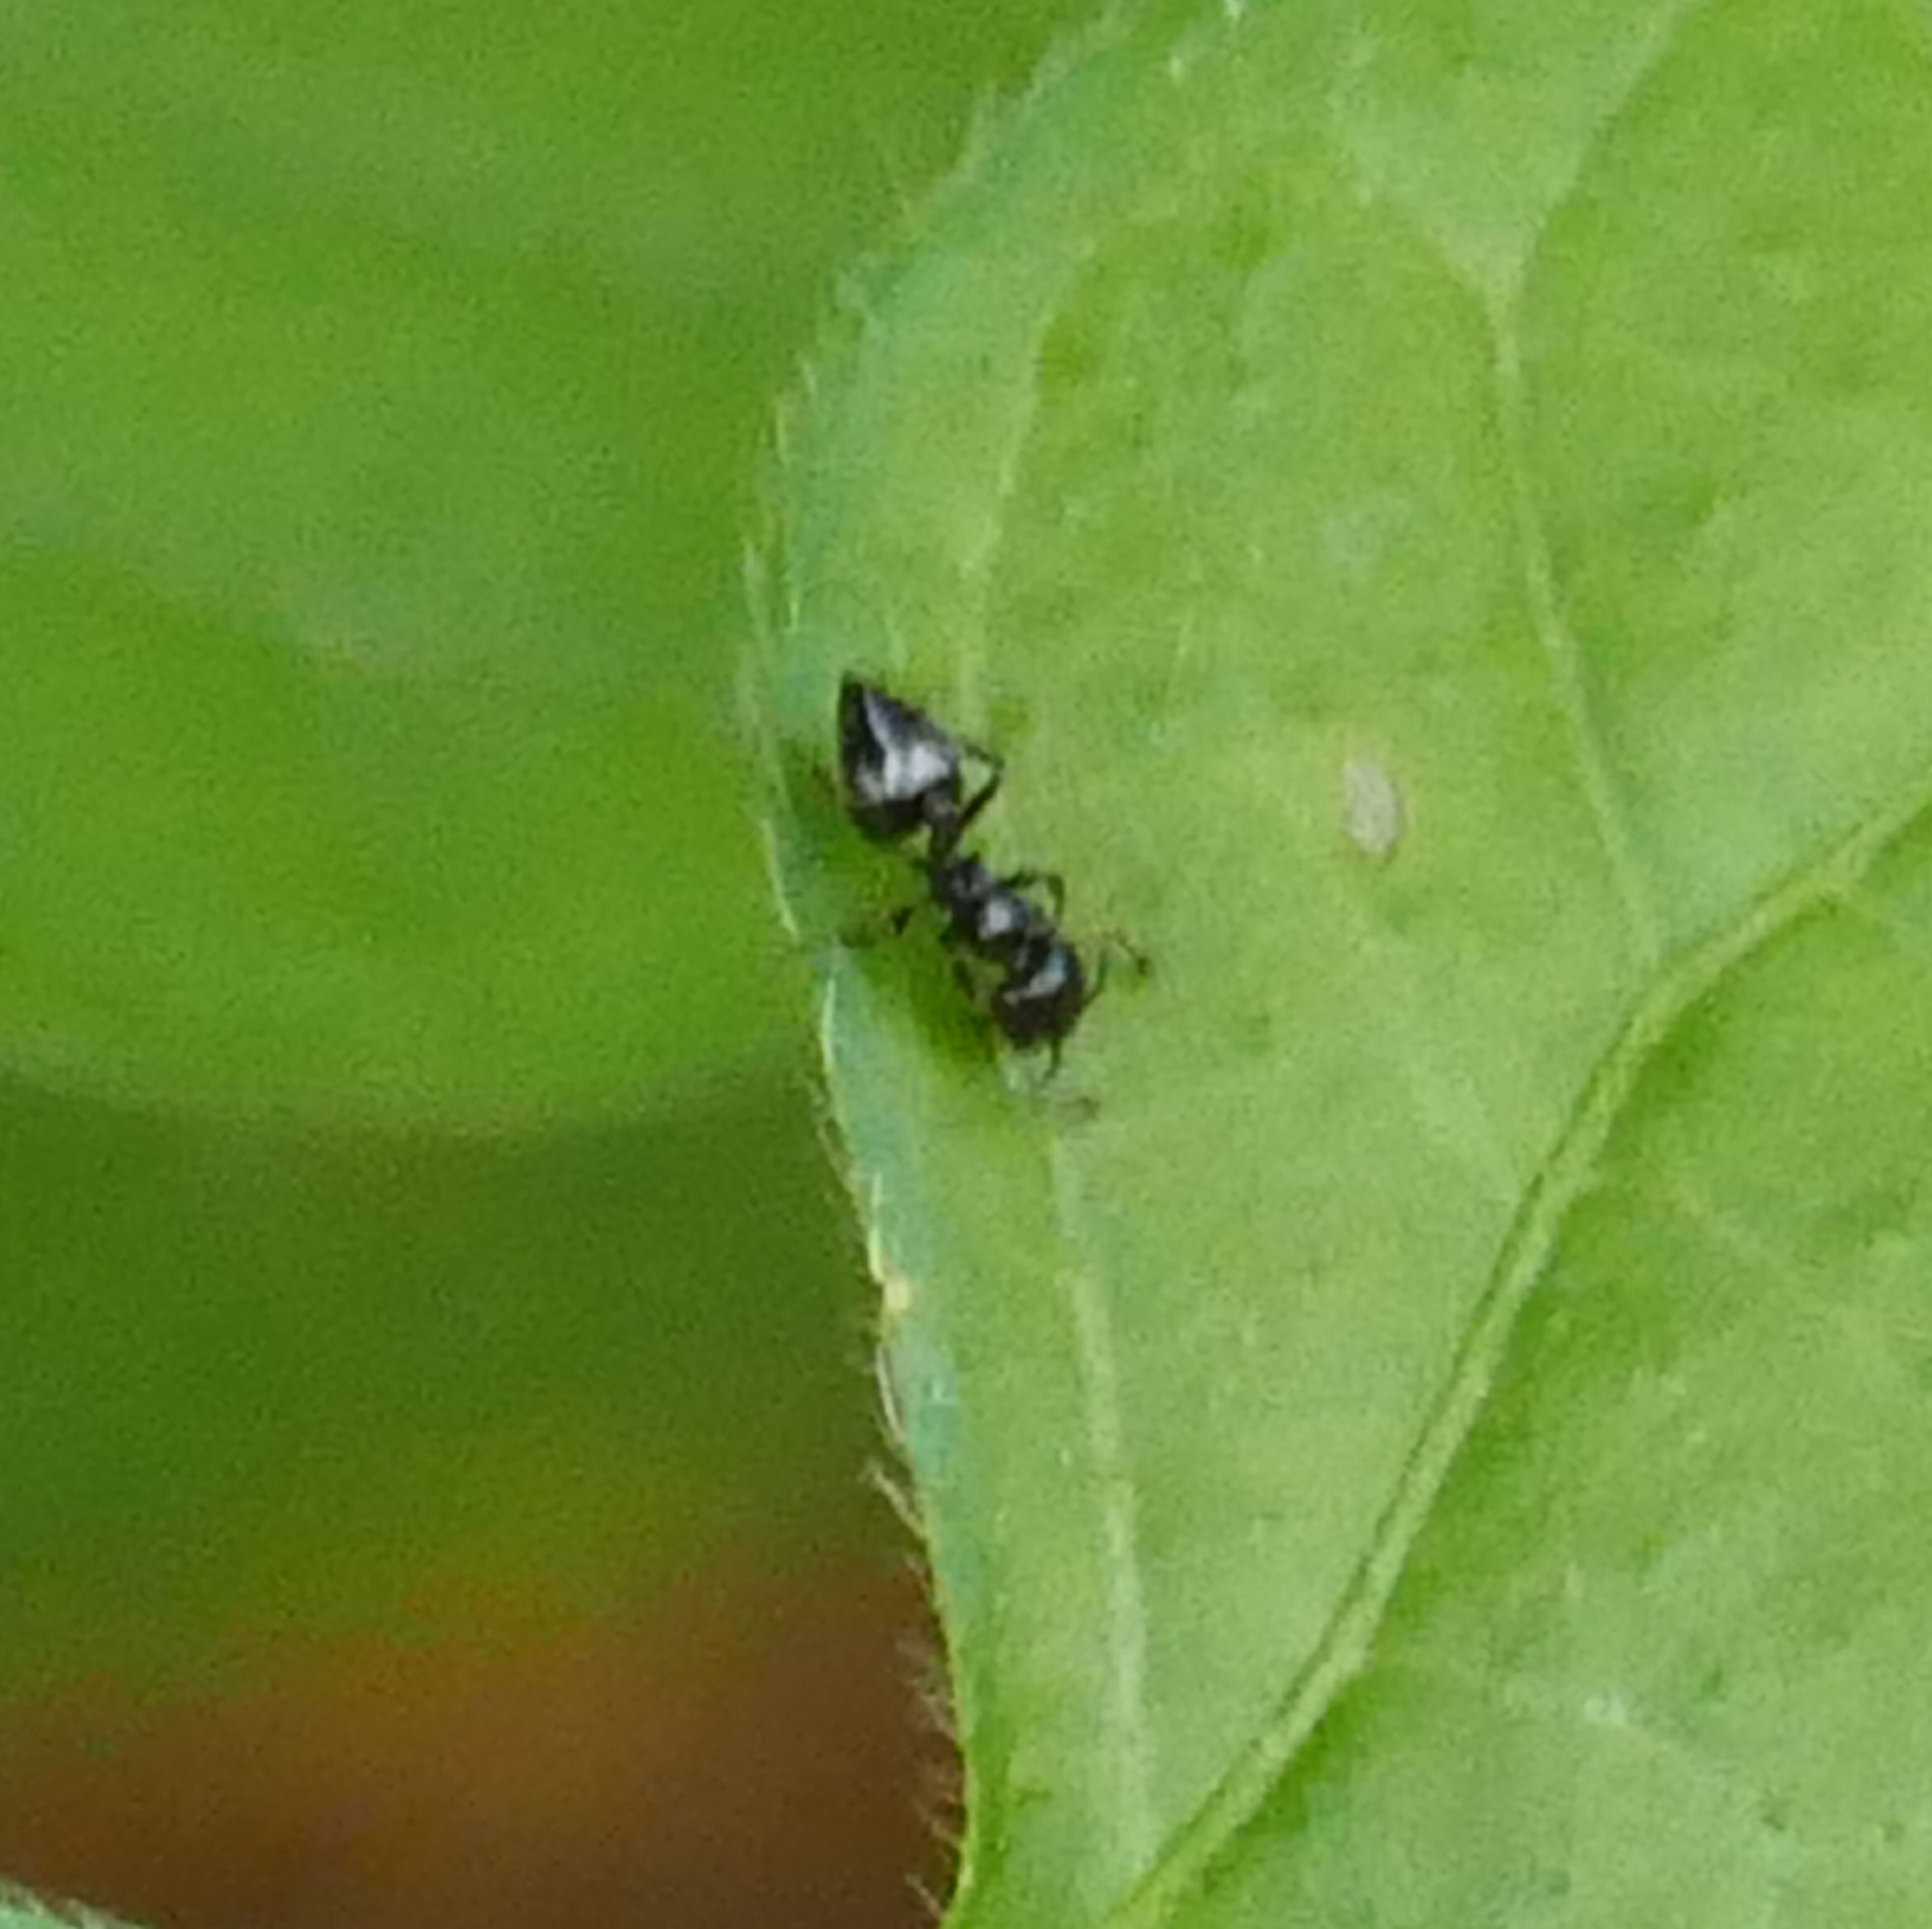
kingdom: Animalia
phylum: Arthropoda
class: Insecta
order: Hymenoptera
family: Formicidae
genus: Crematogaster
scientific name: Crematogaster torosa
